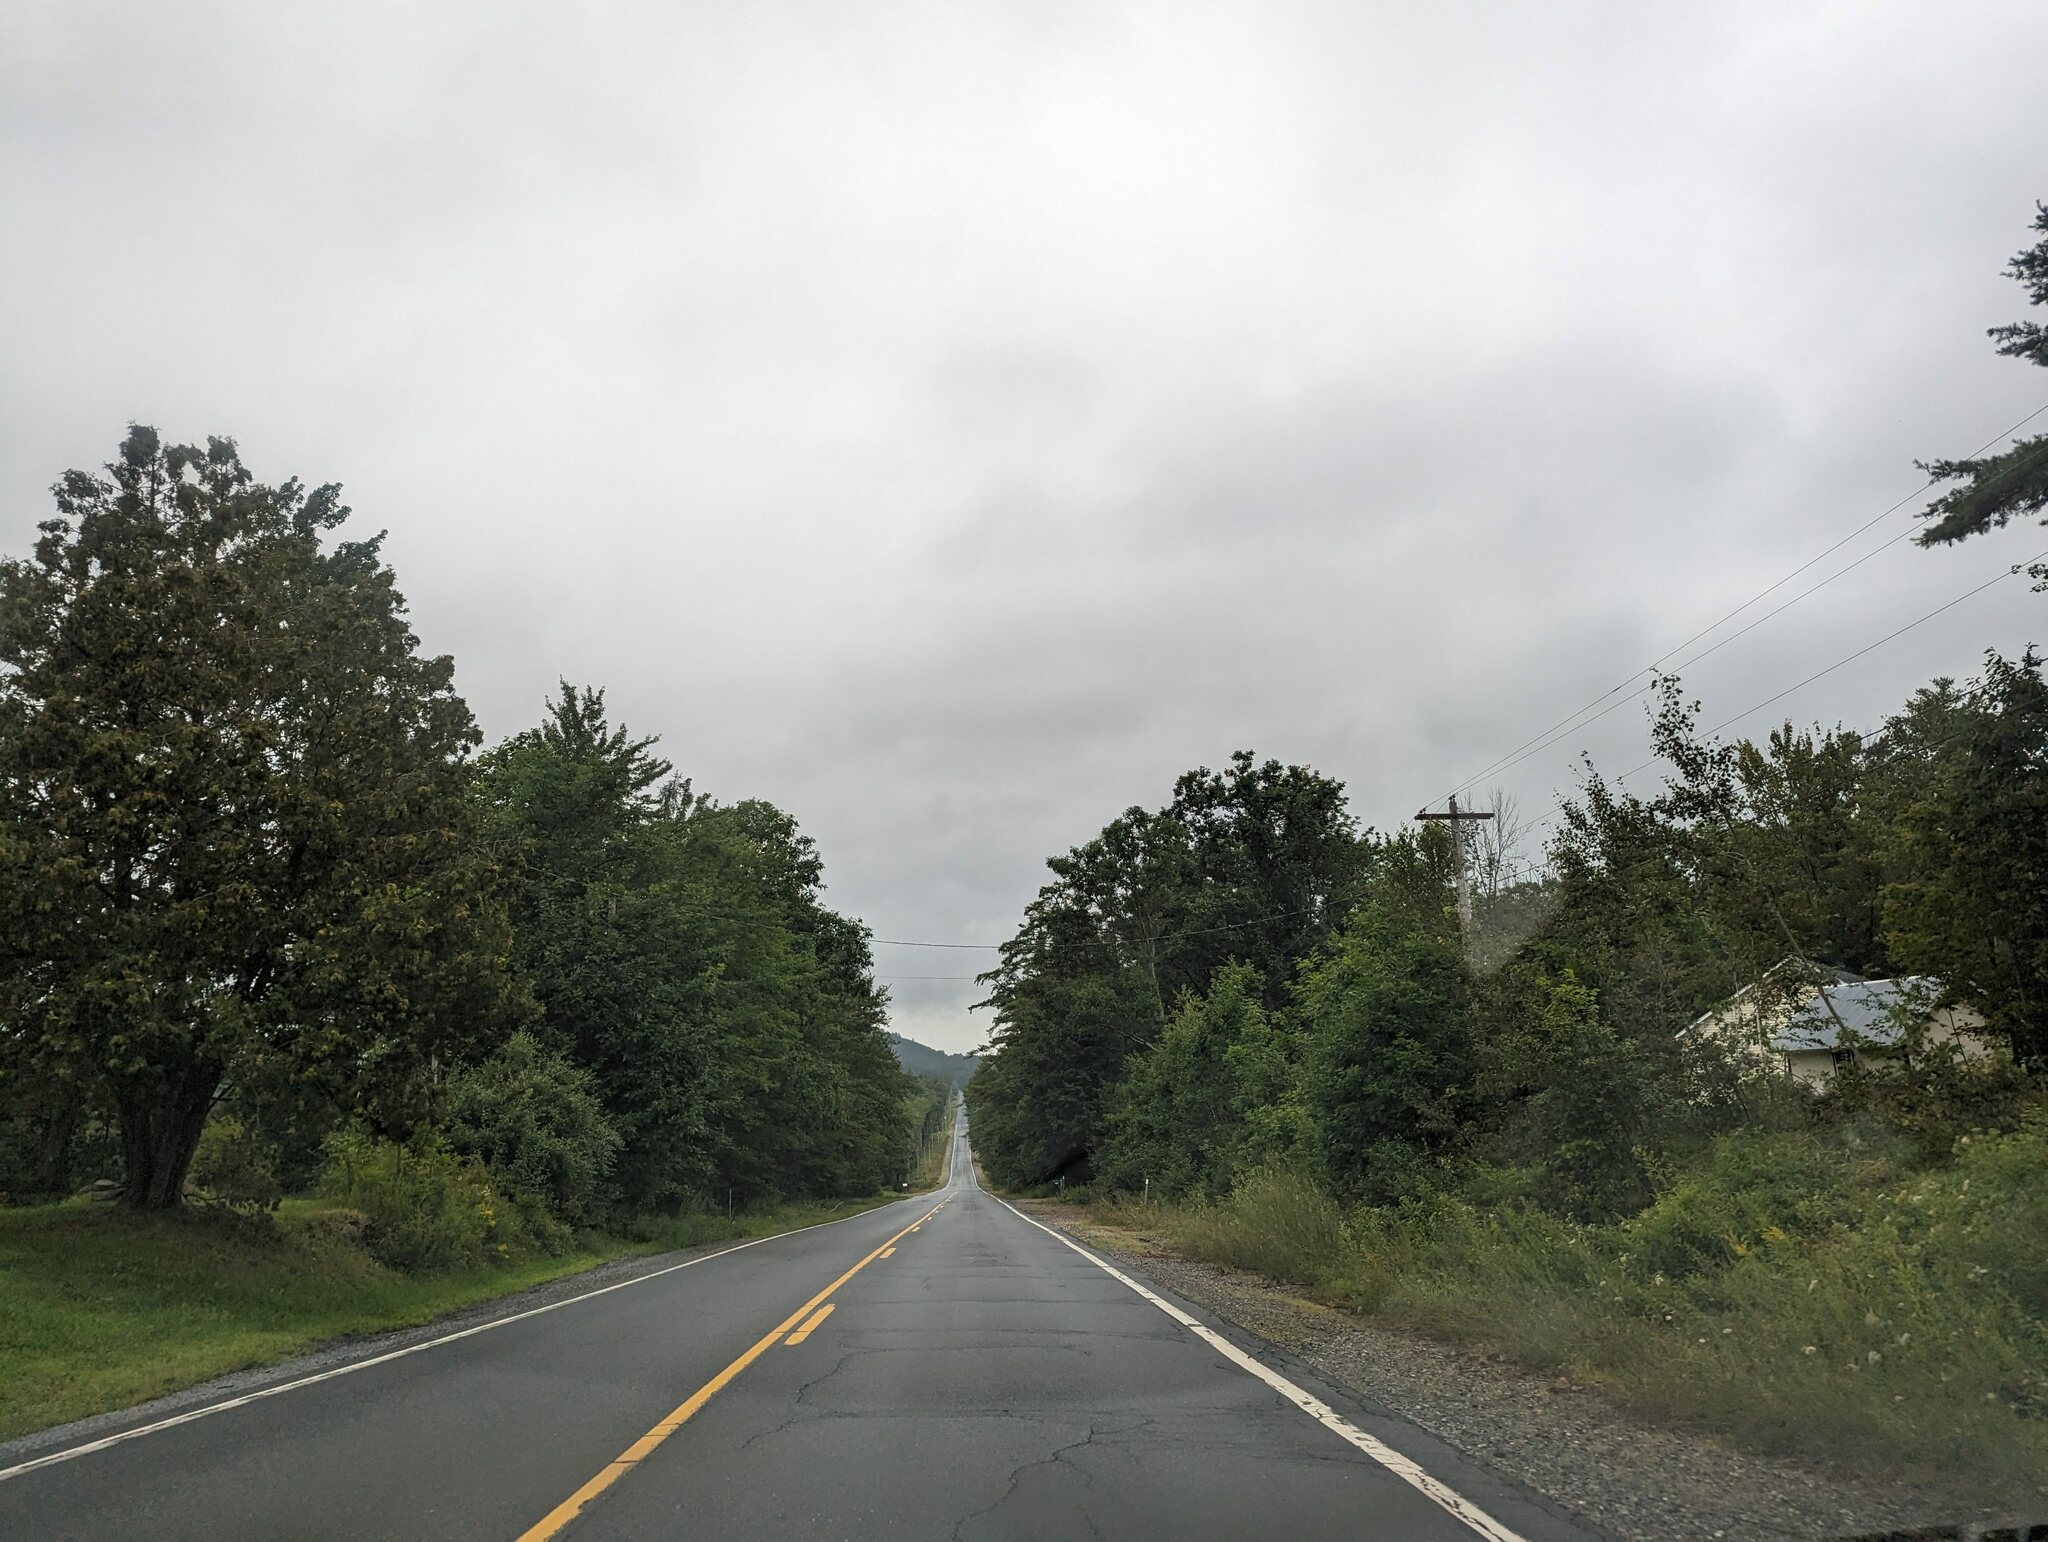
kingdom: Plantae
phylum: Tracheophyta
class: Pinopsida
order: Pinales
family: Pinaceae
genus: Pinus
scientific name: Pinus strobus
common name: Weymouth pine
